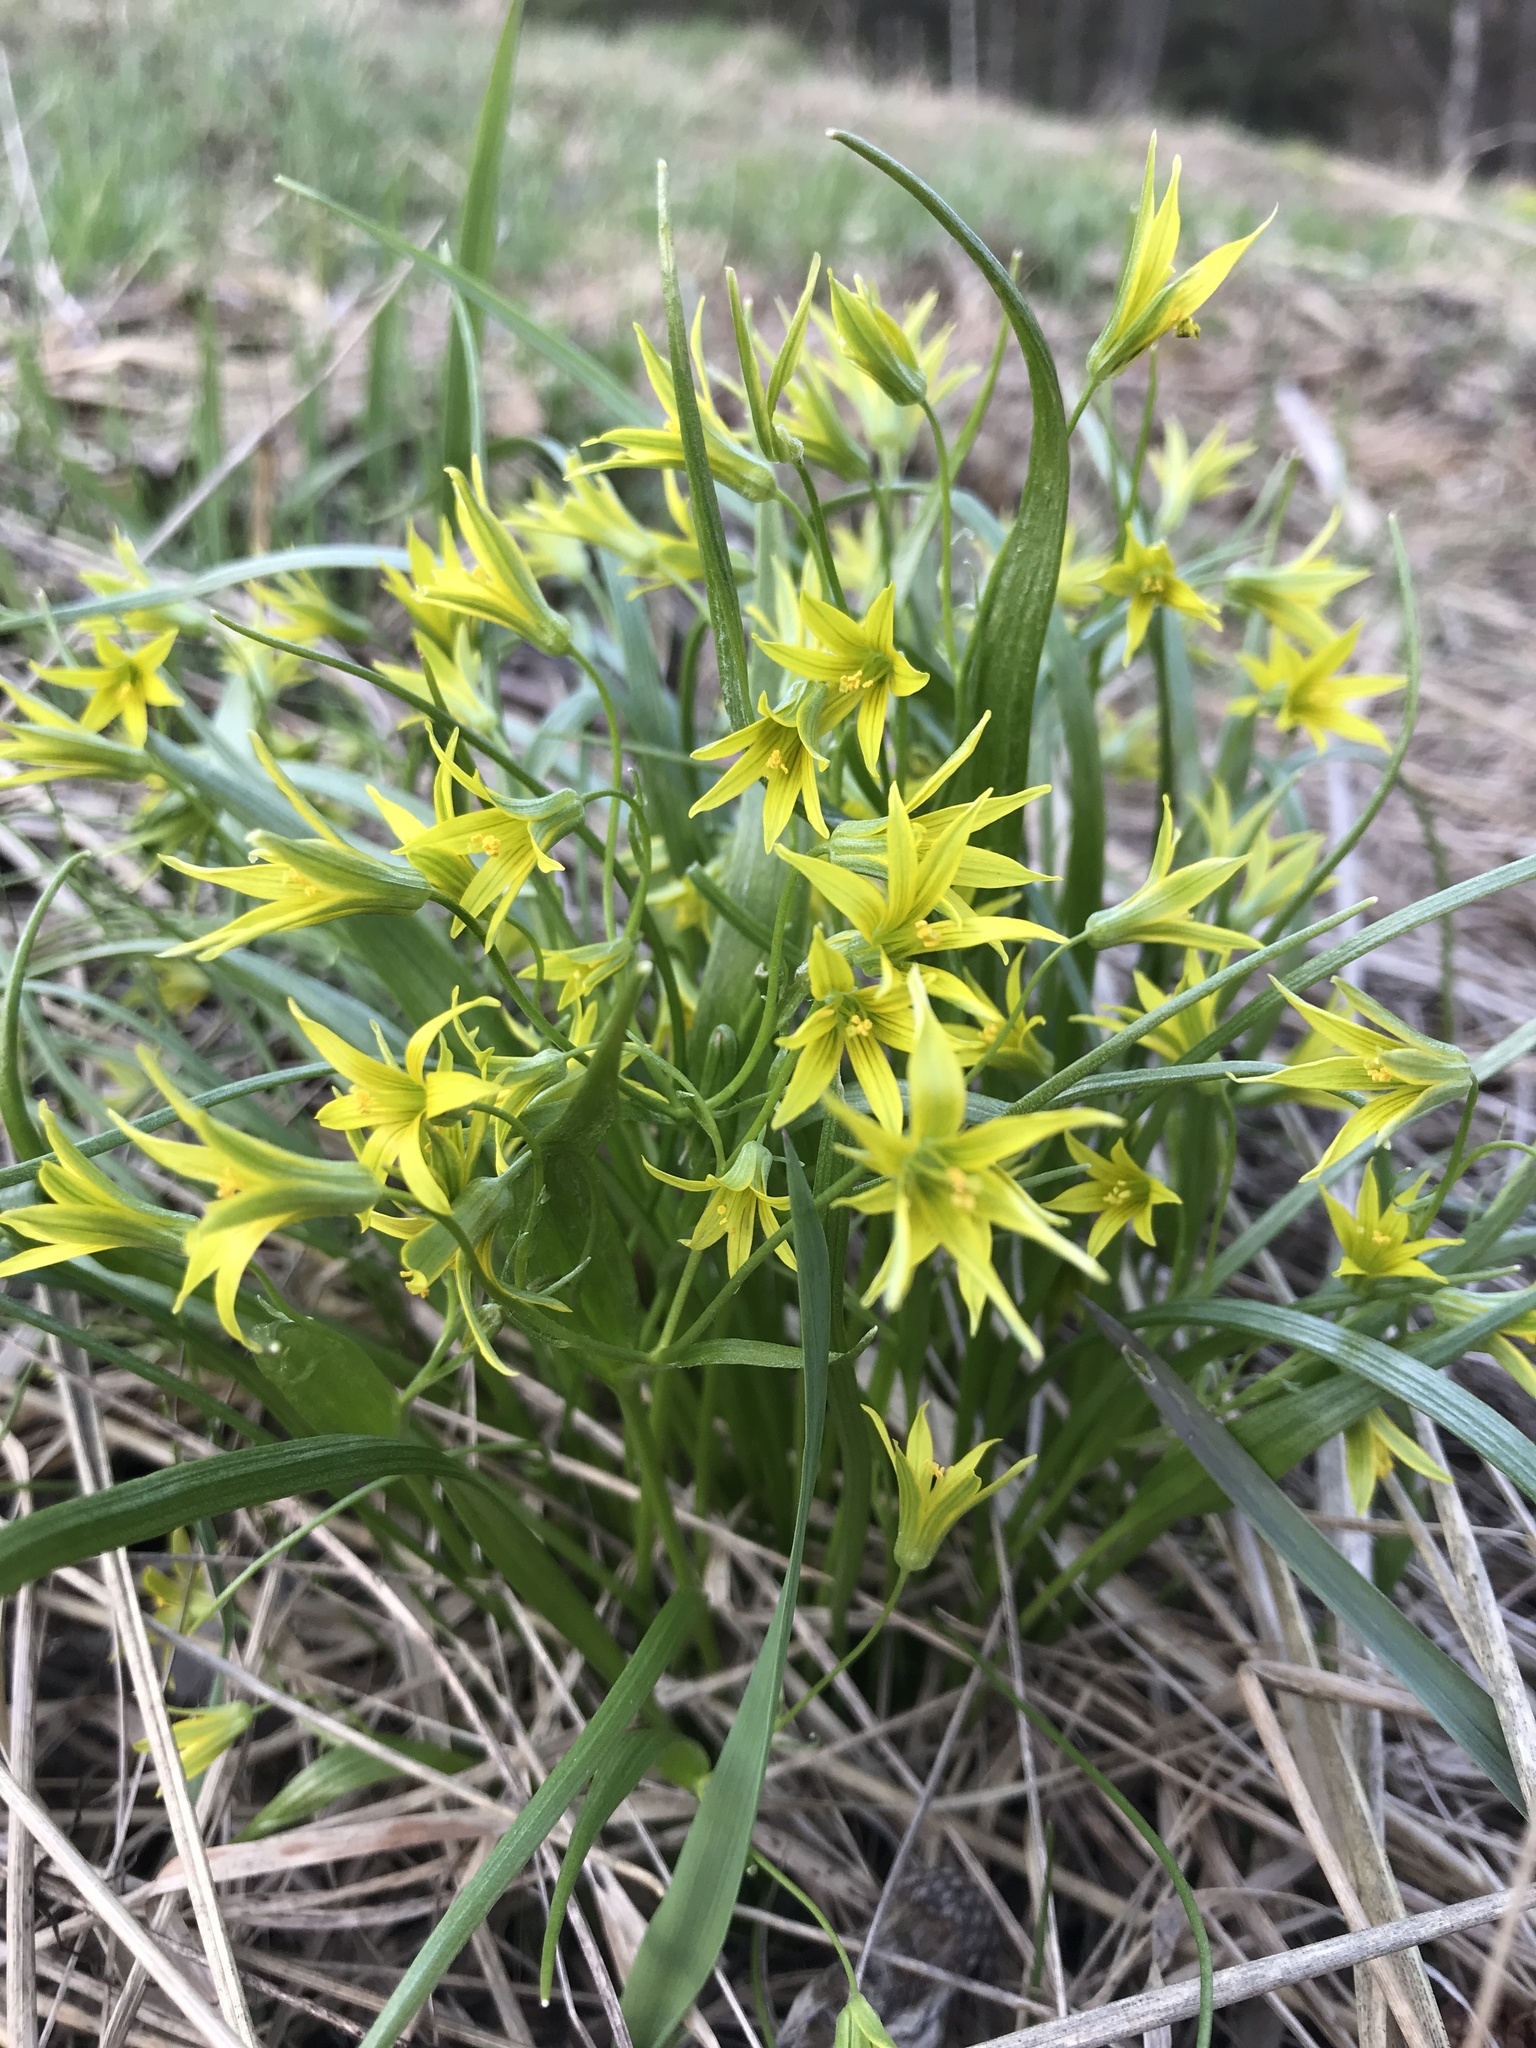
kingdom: Plantae
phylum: Tracheophyta
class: Liliopsida
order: Liliales
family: Liliaceae
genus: Gagea
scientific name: Gagea minima
